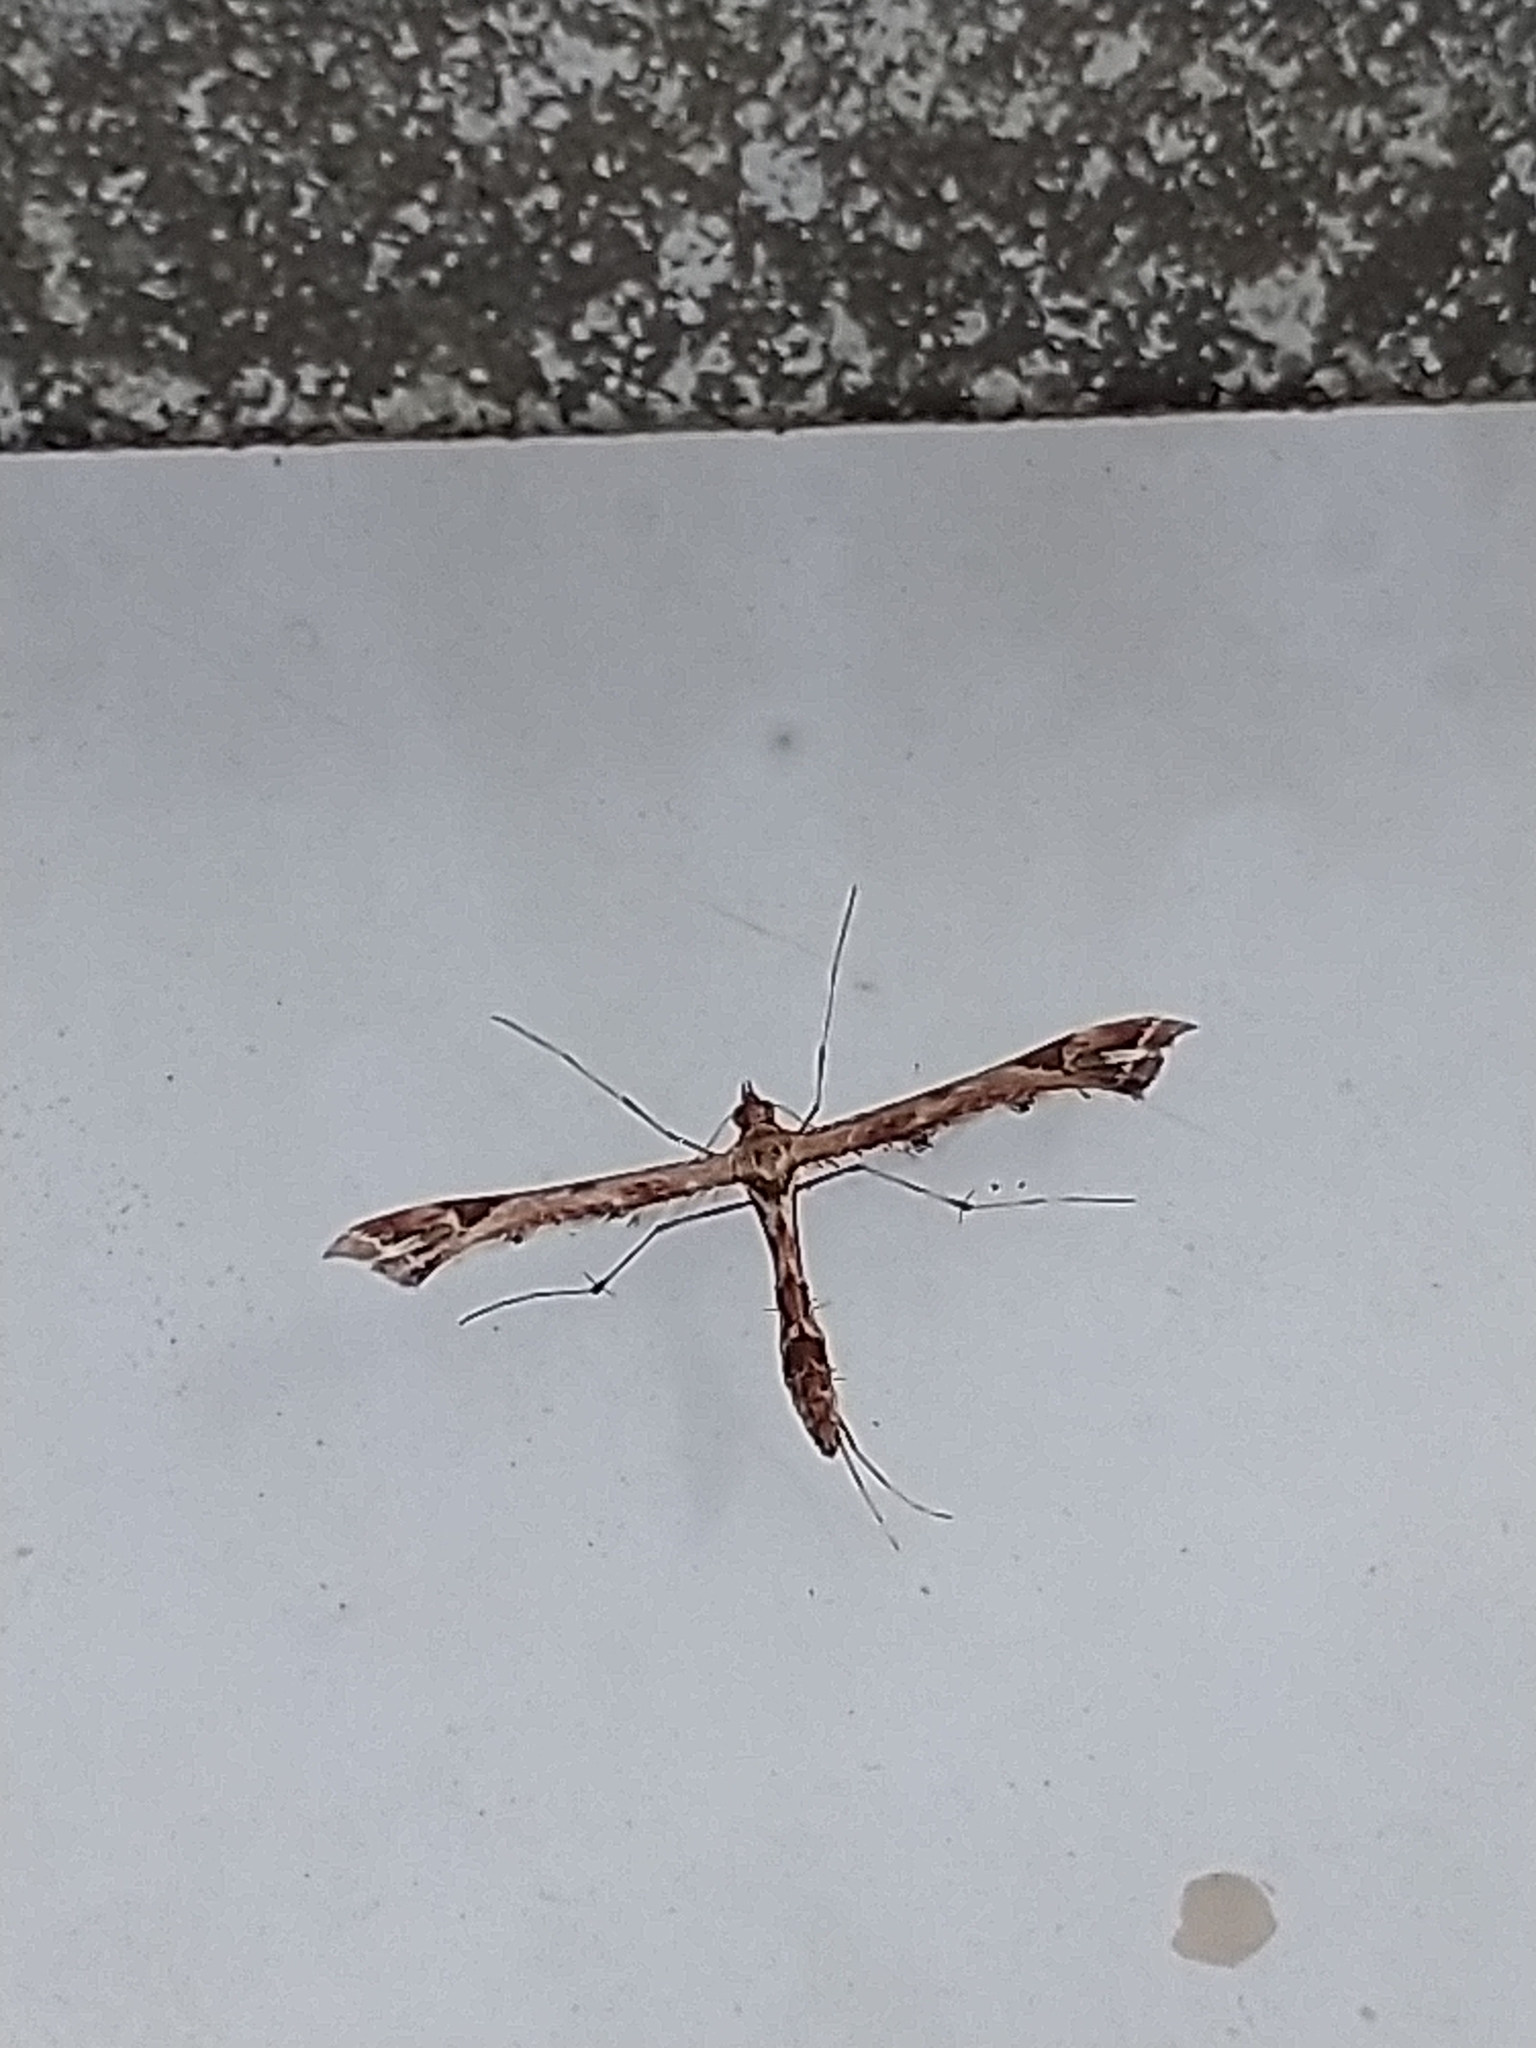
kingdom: Animalia
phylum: Arthropoda
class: Insecta
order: Lepidoptera
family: Pterophoridae
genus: Amblyptilia
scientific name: Amblyptilia acanthadactyla
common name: Beautiful plume
